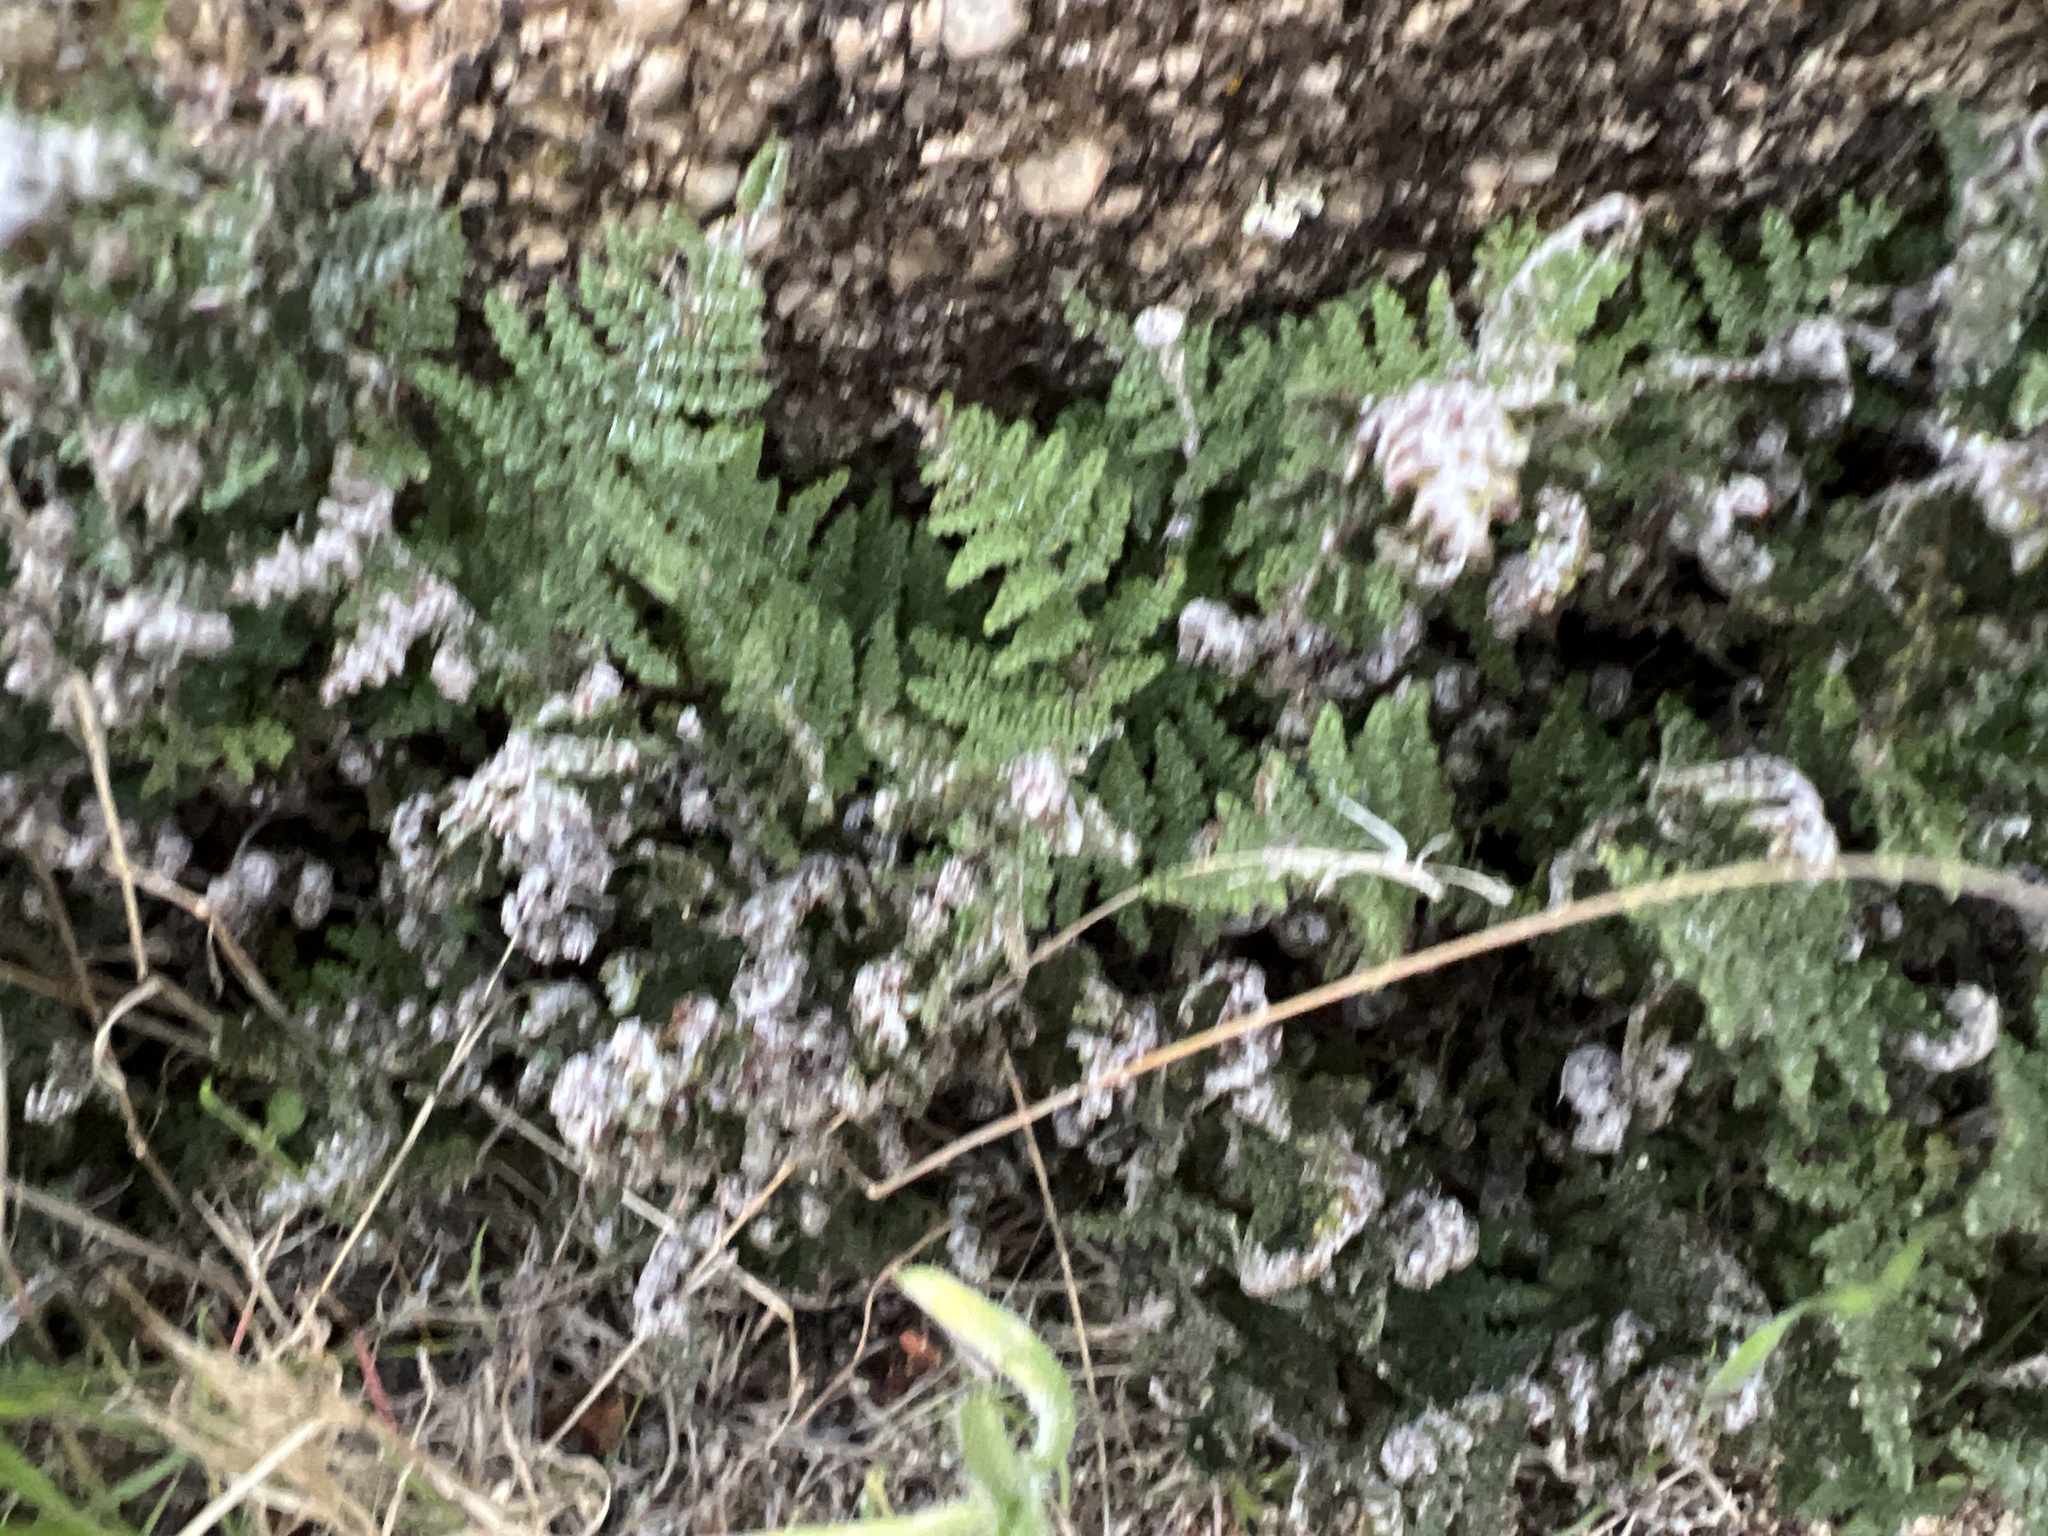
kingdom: Plantae
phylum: Tracheophyta
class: Polypodiopsida
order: Polypodiales
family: Pteridaceae
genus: Myriopteris
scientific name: Myriopteris covillei
